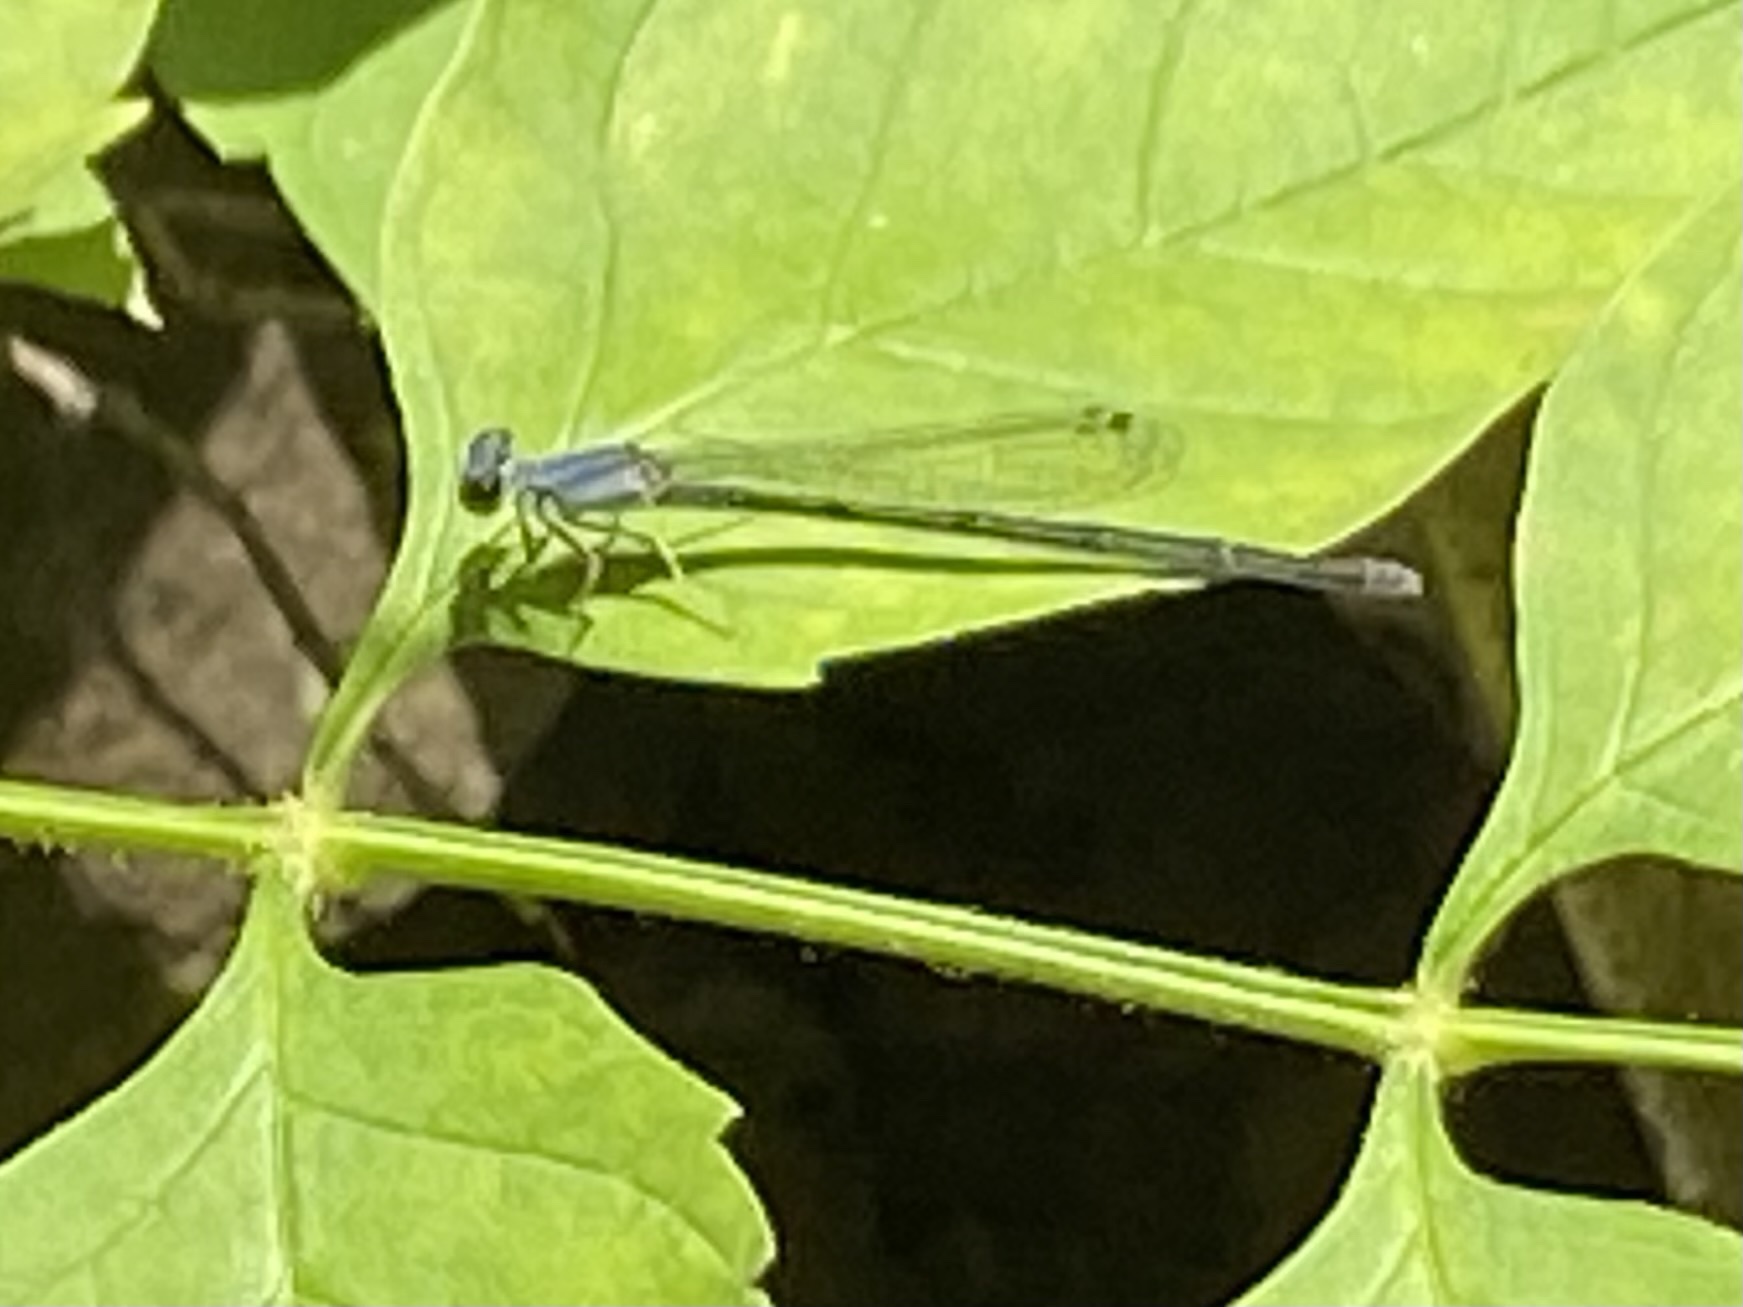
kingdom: Animalia
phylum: Arthropoda
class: Insecta
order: Odonata
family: Coenagrionidae
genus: Ischnura
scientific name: Ischnura posita
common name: Fragile forktail
